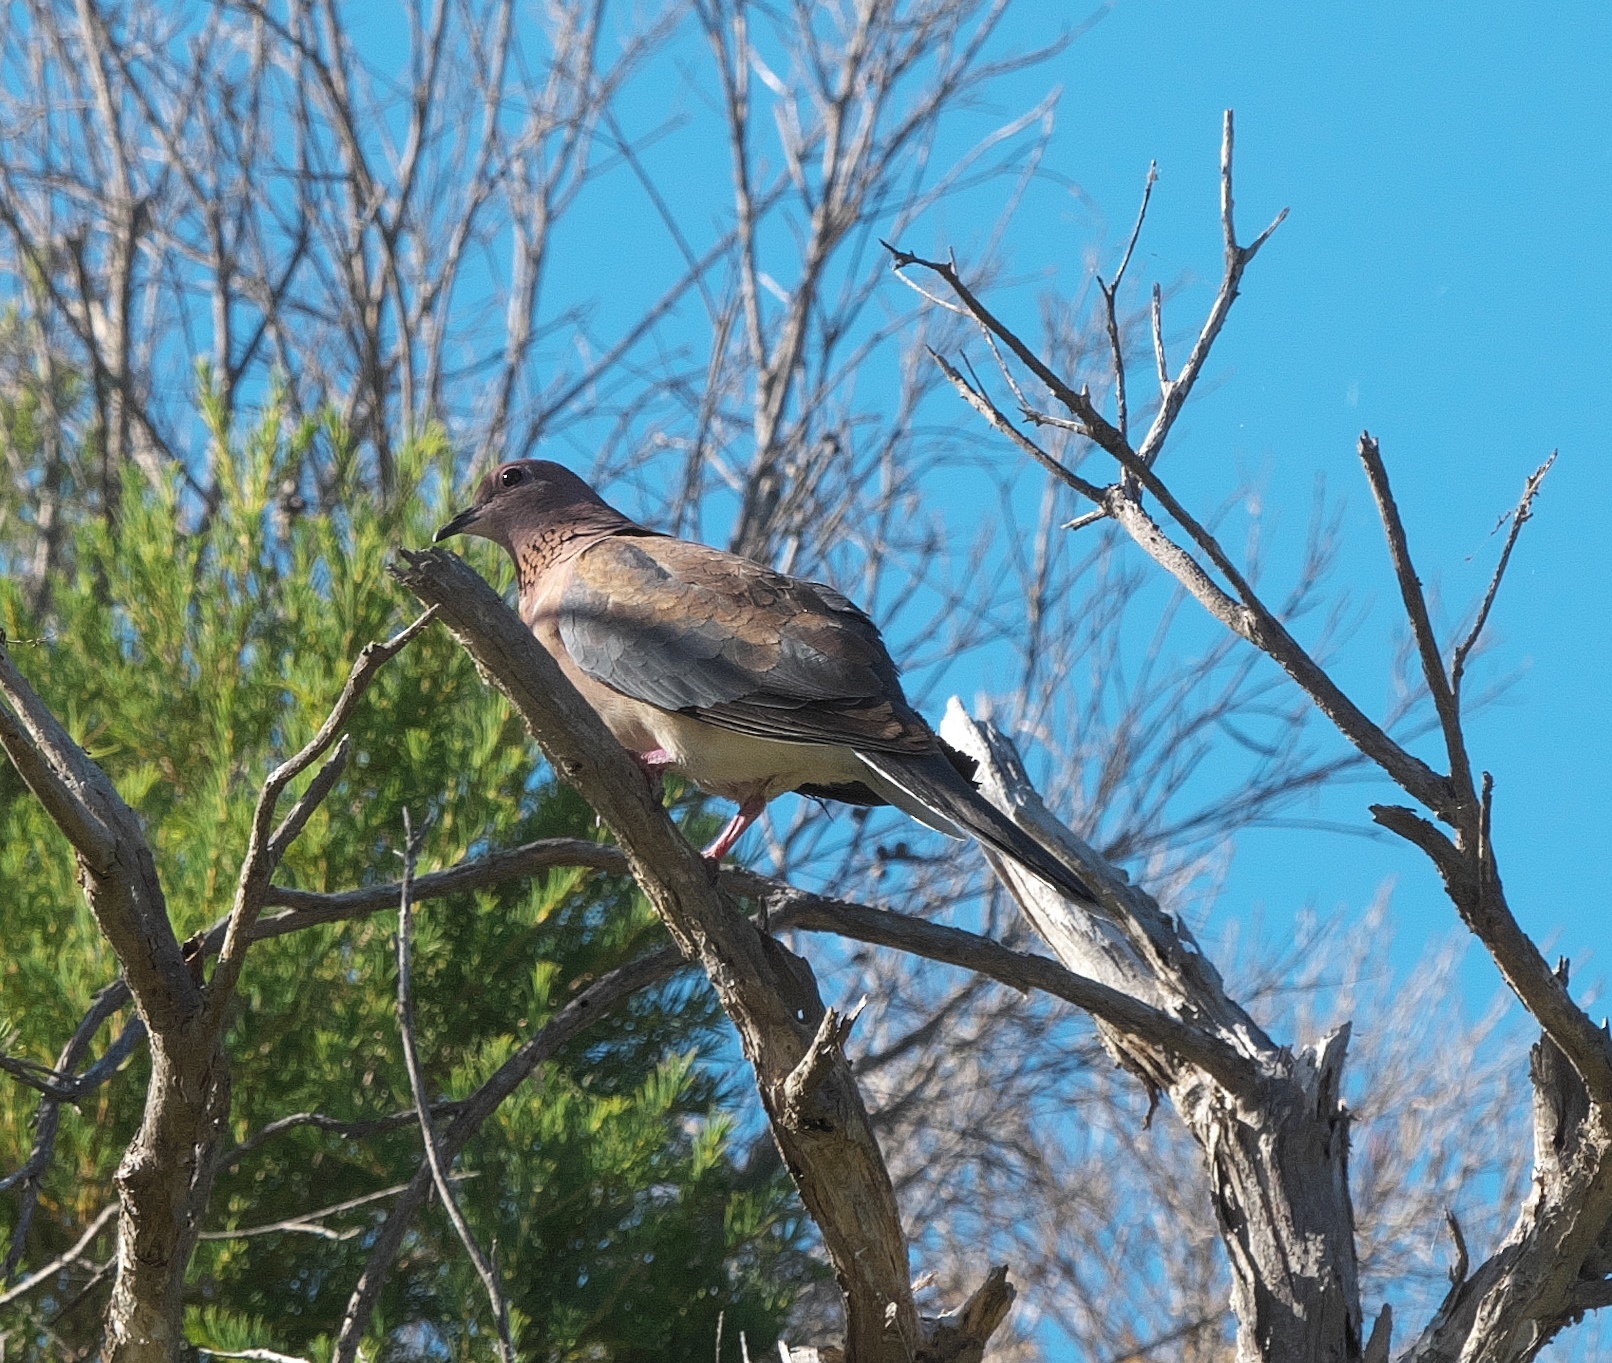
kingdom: Animalia
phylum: Chordata
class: Aves
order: Columbiformes
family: Columbidae
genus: Spilopelia
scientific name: Spilopelia senegalensis
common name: Laughing dove
